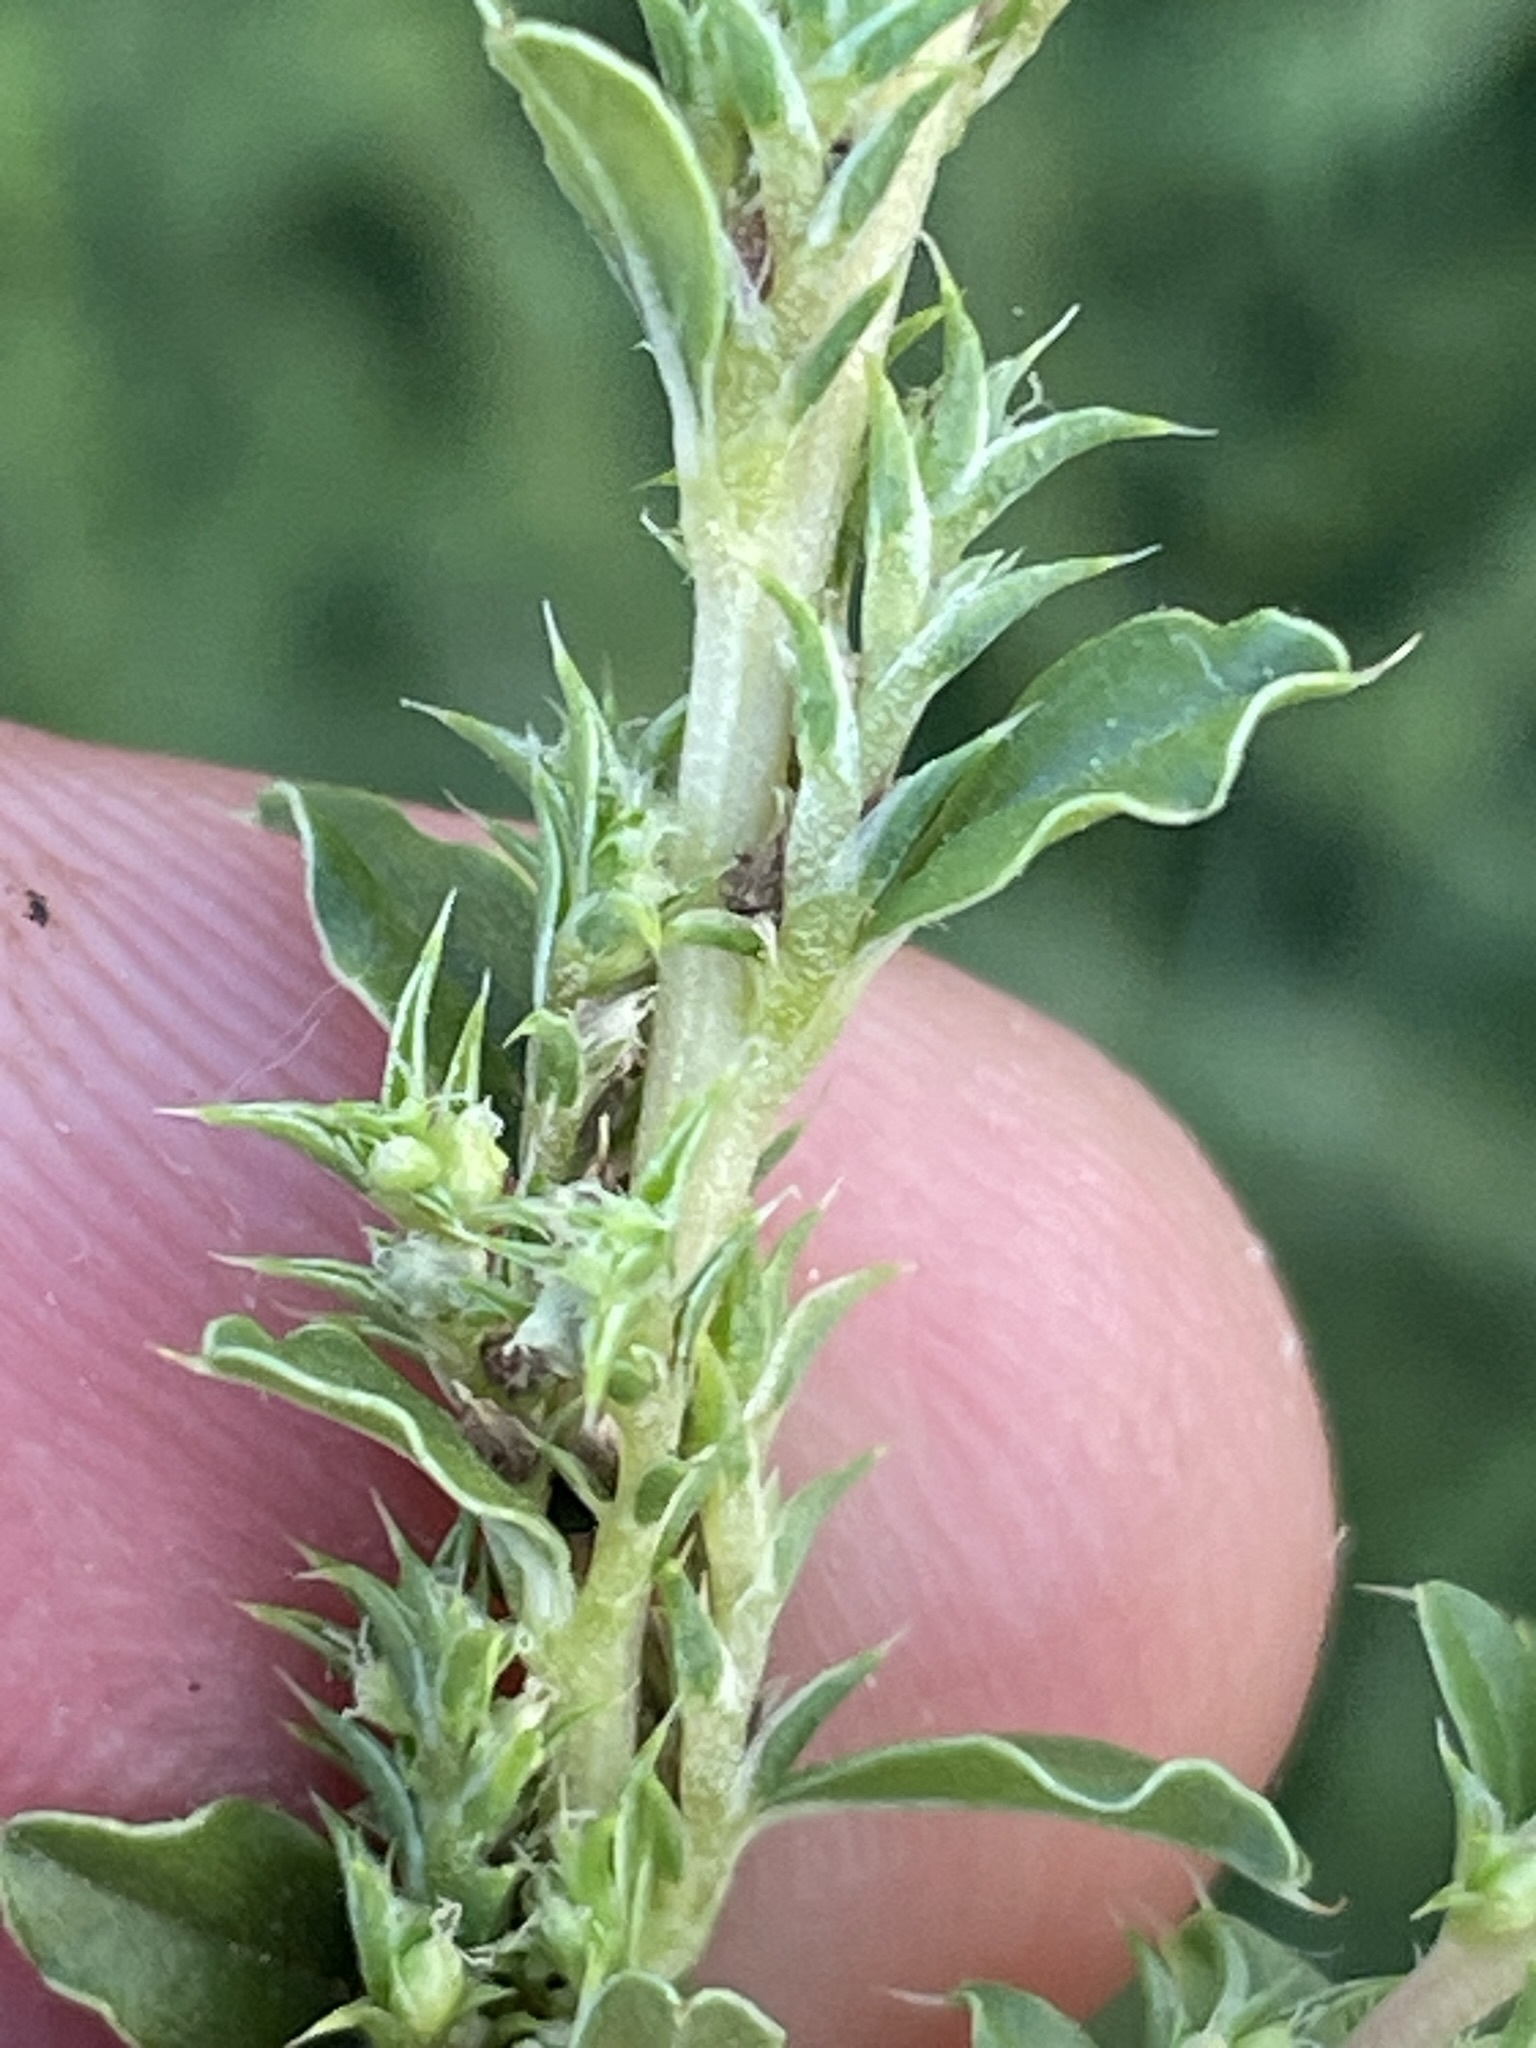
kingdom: Plantae
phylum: Tracheophyta
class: Magnoliopsida
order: Caryophyllales
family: Amaranthaceae
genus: Amaranthus
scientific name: Amaranthus albus
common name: White pigweed
